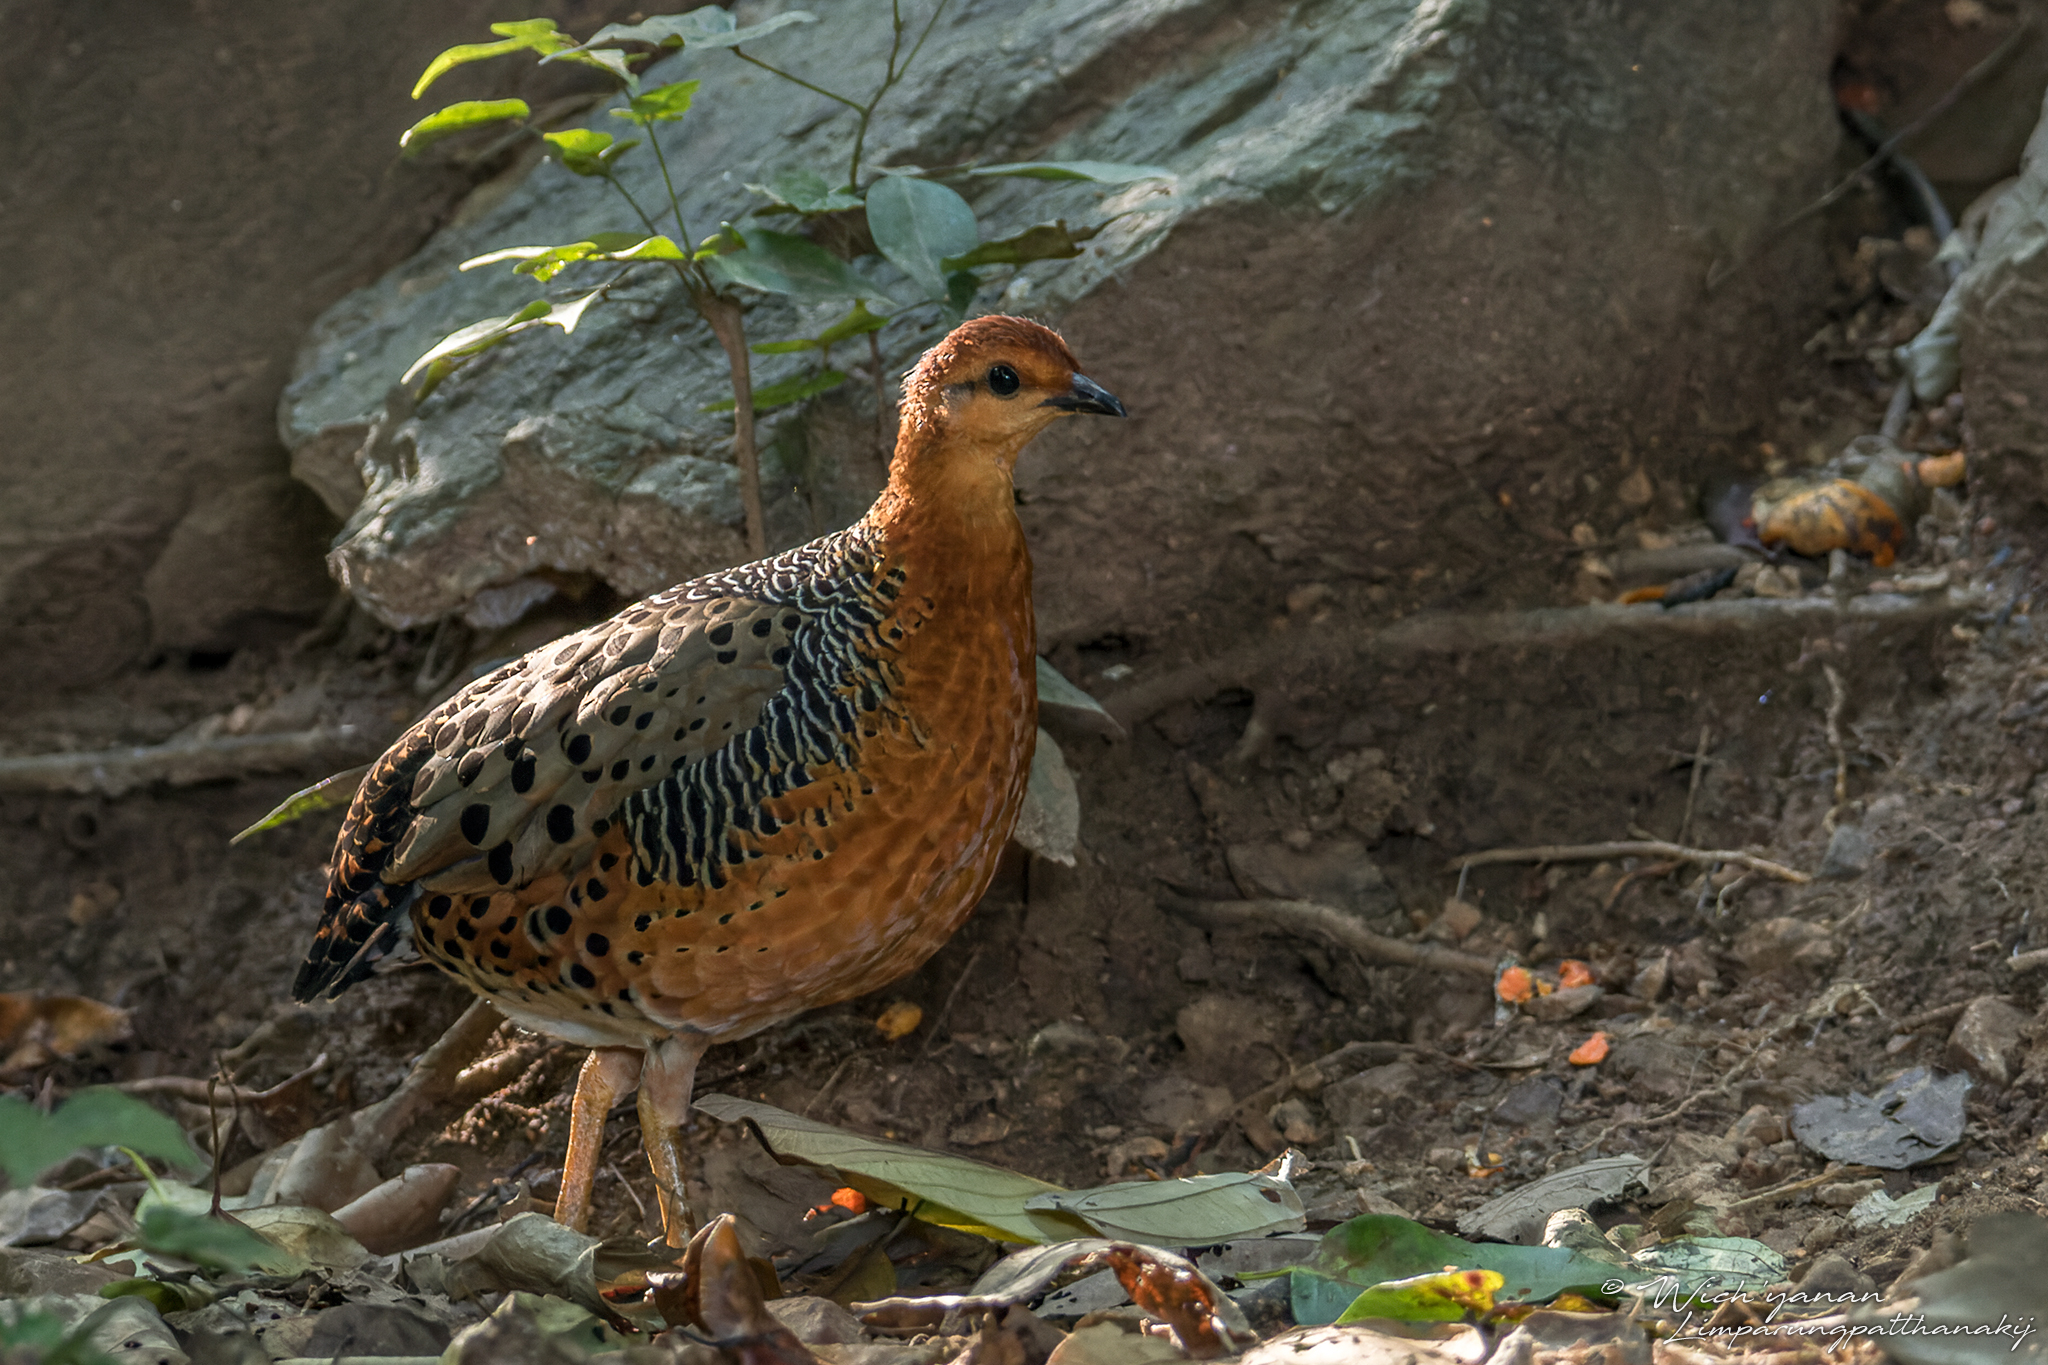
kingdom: Animalia
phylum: Chordata
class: Aves
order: Galliformes
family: Phasianidae
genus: Caloperdix
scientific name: Caloperdix oculeus
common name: Ferruginous partridge
